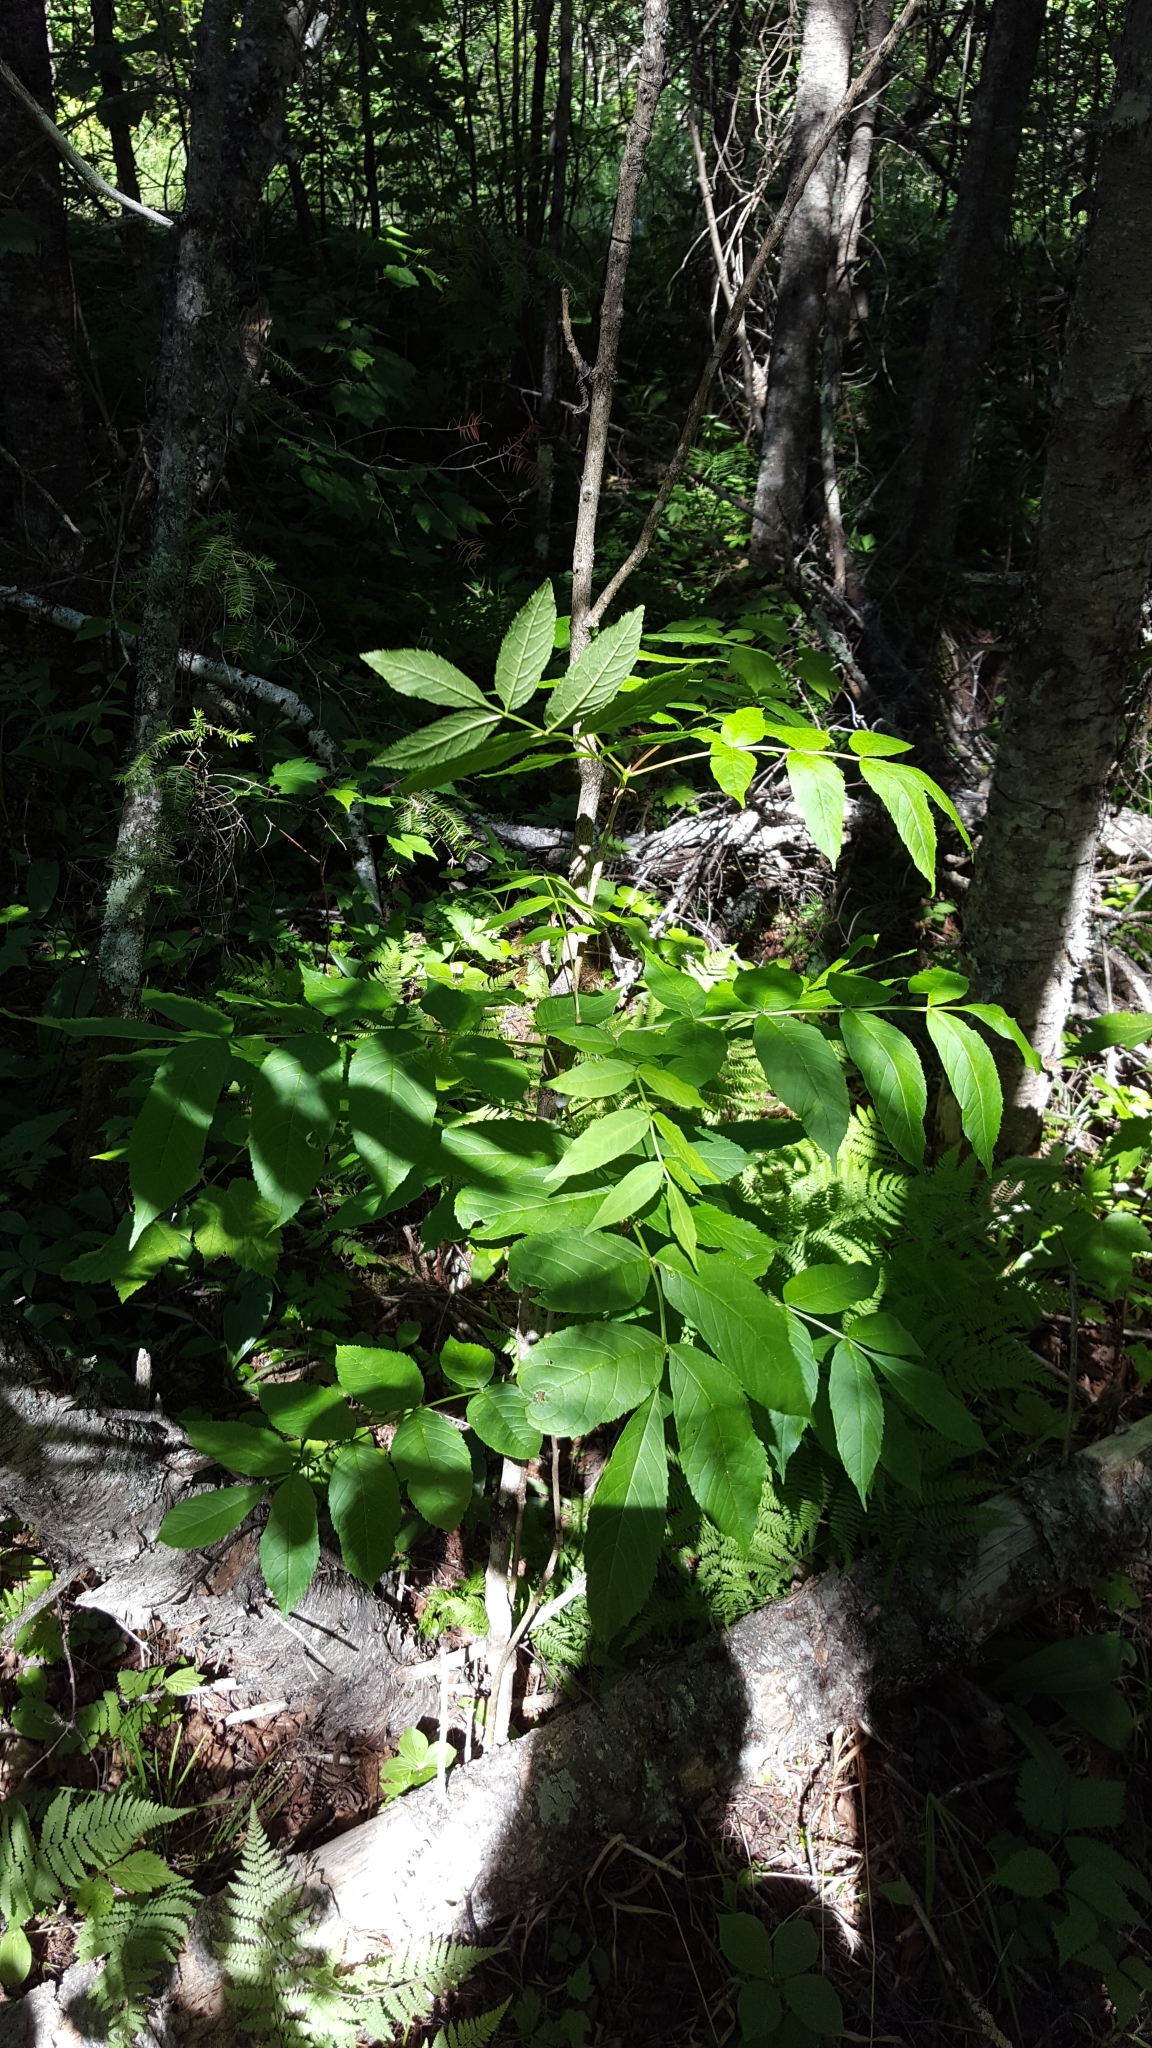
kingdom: Plantae
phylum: Tracheophyta
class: Magnoliopsida
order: Lamiales
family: Oleaceae
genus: Fraxinus
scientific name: Fraxinus nigra
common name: Black ash
